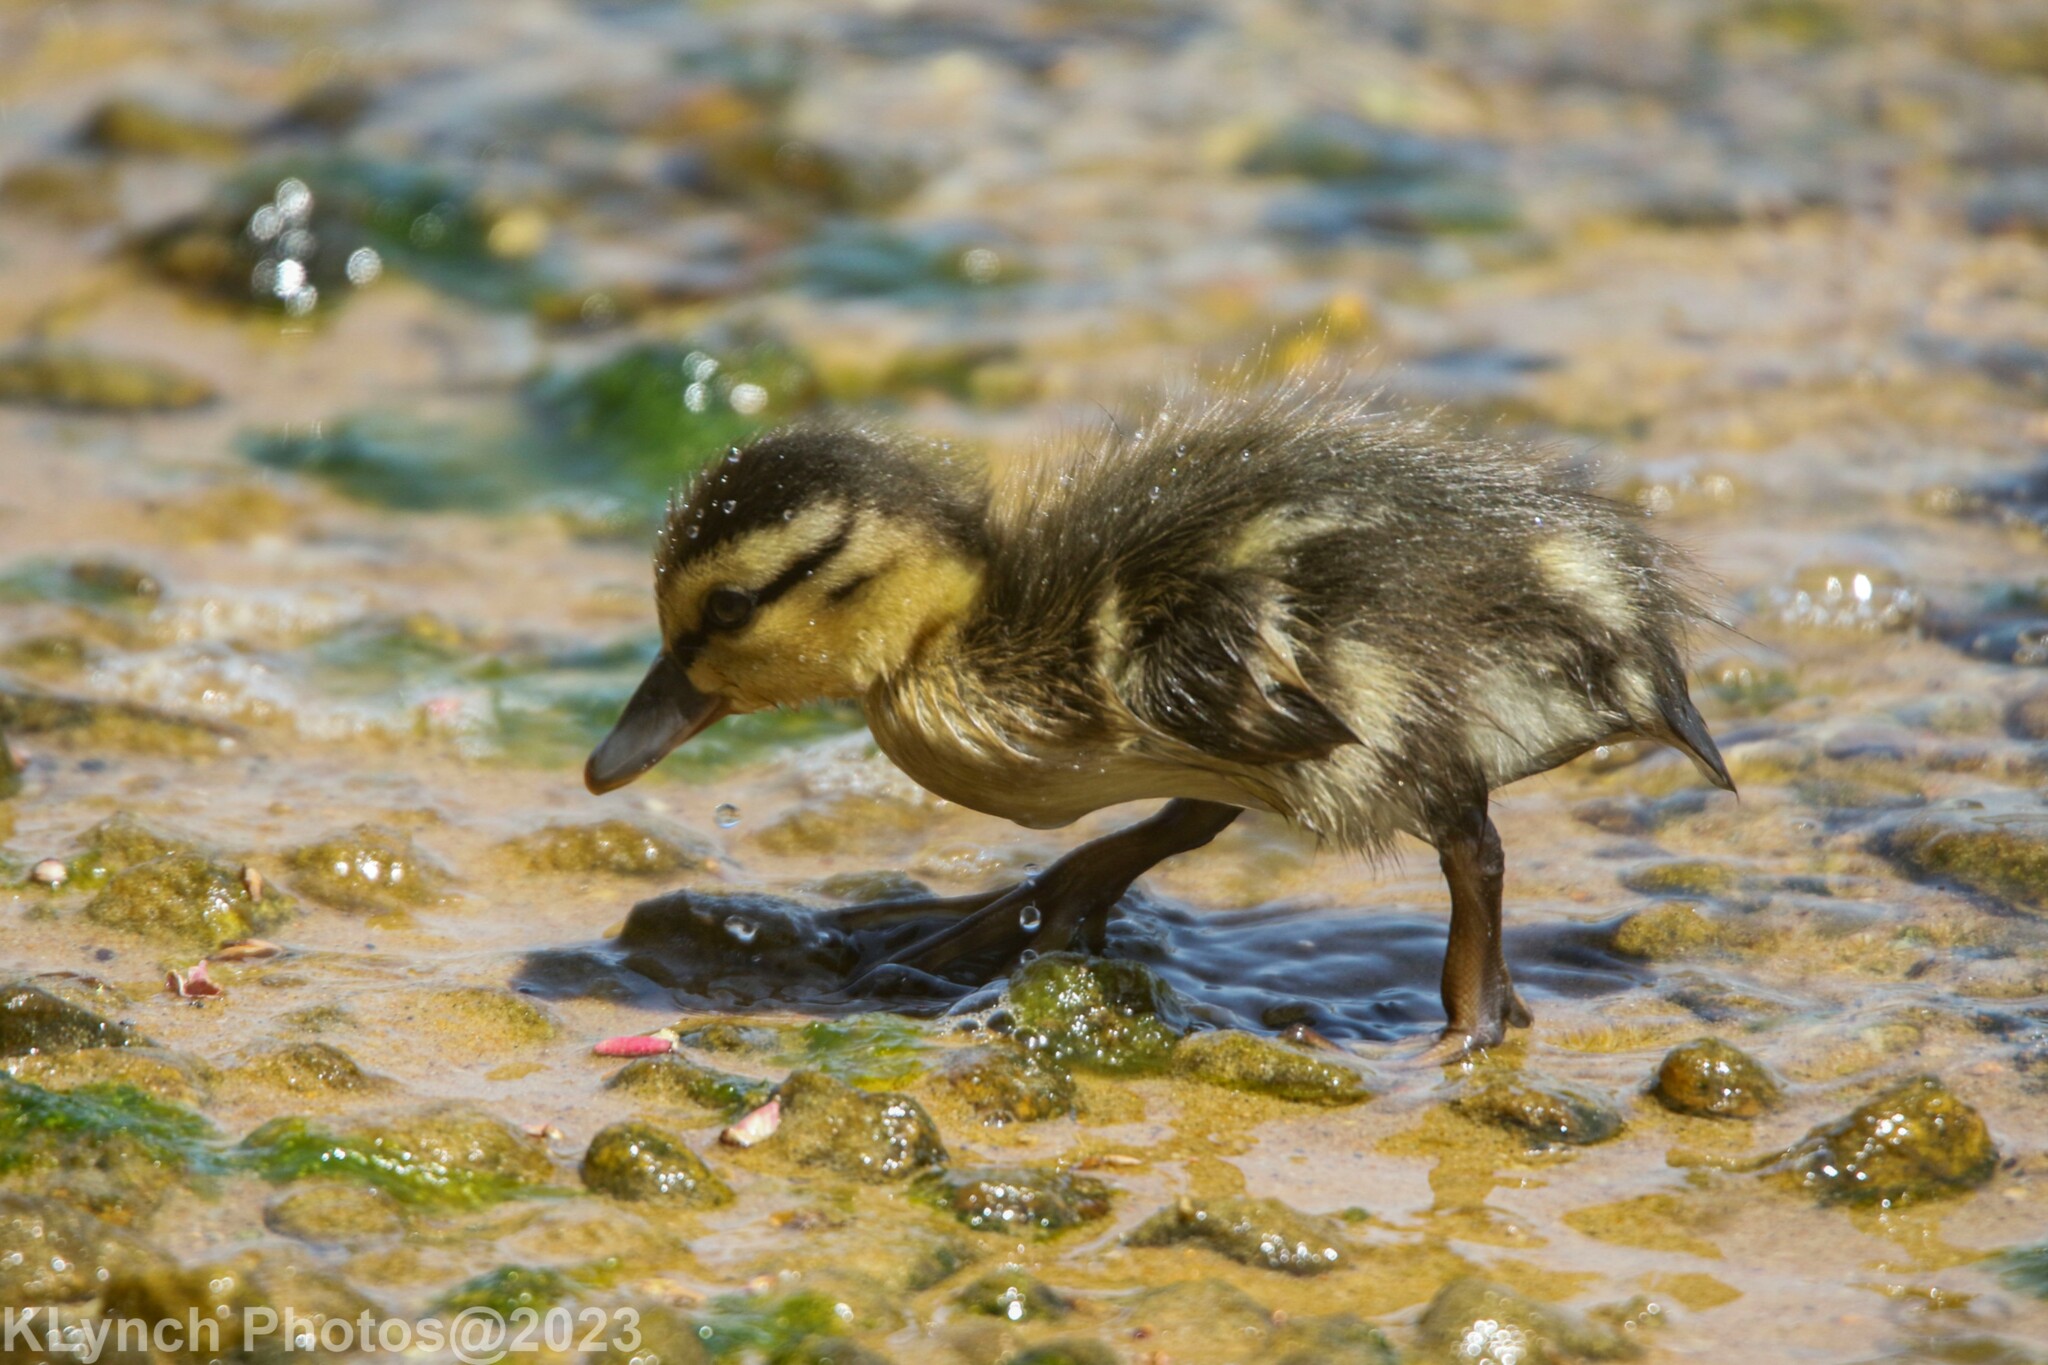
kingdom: Animalia
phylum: Chordata
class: Aves
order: Anseriformes
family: Anatidae
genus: Anas
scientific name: Anas platyrhynchos
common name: Mallard
